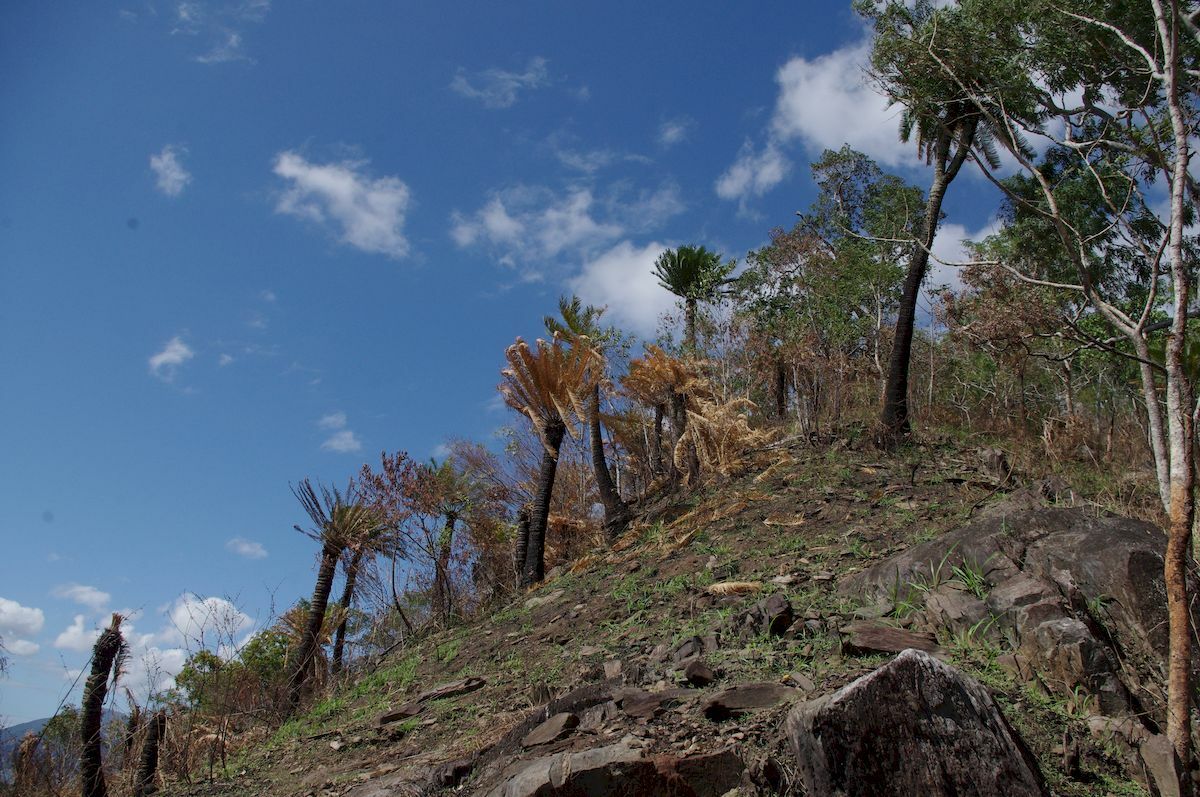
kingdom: Plantae
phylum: Tracheophyta
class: Cycadopsida
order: Cycadales
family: Cycadaceae
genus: Cycas
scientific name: Cycas media
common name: Queensland cycas
